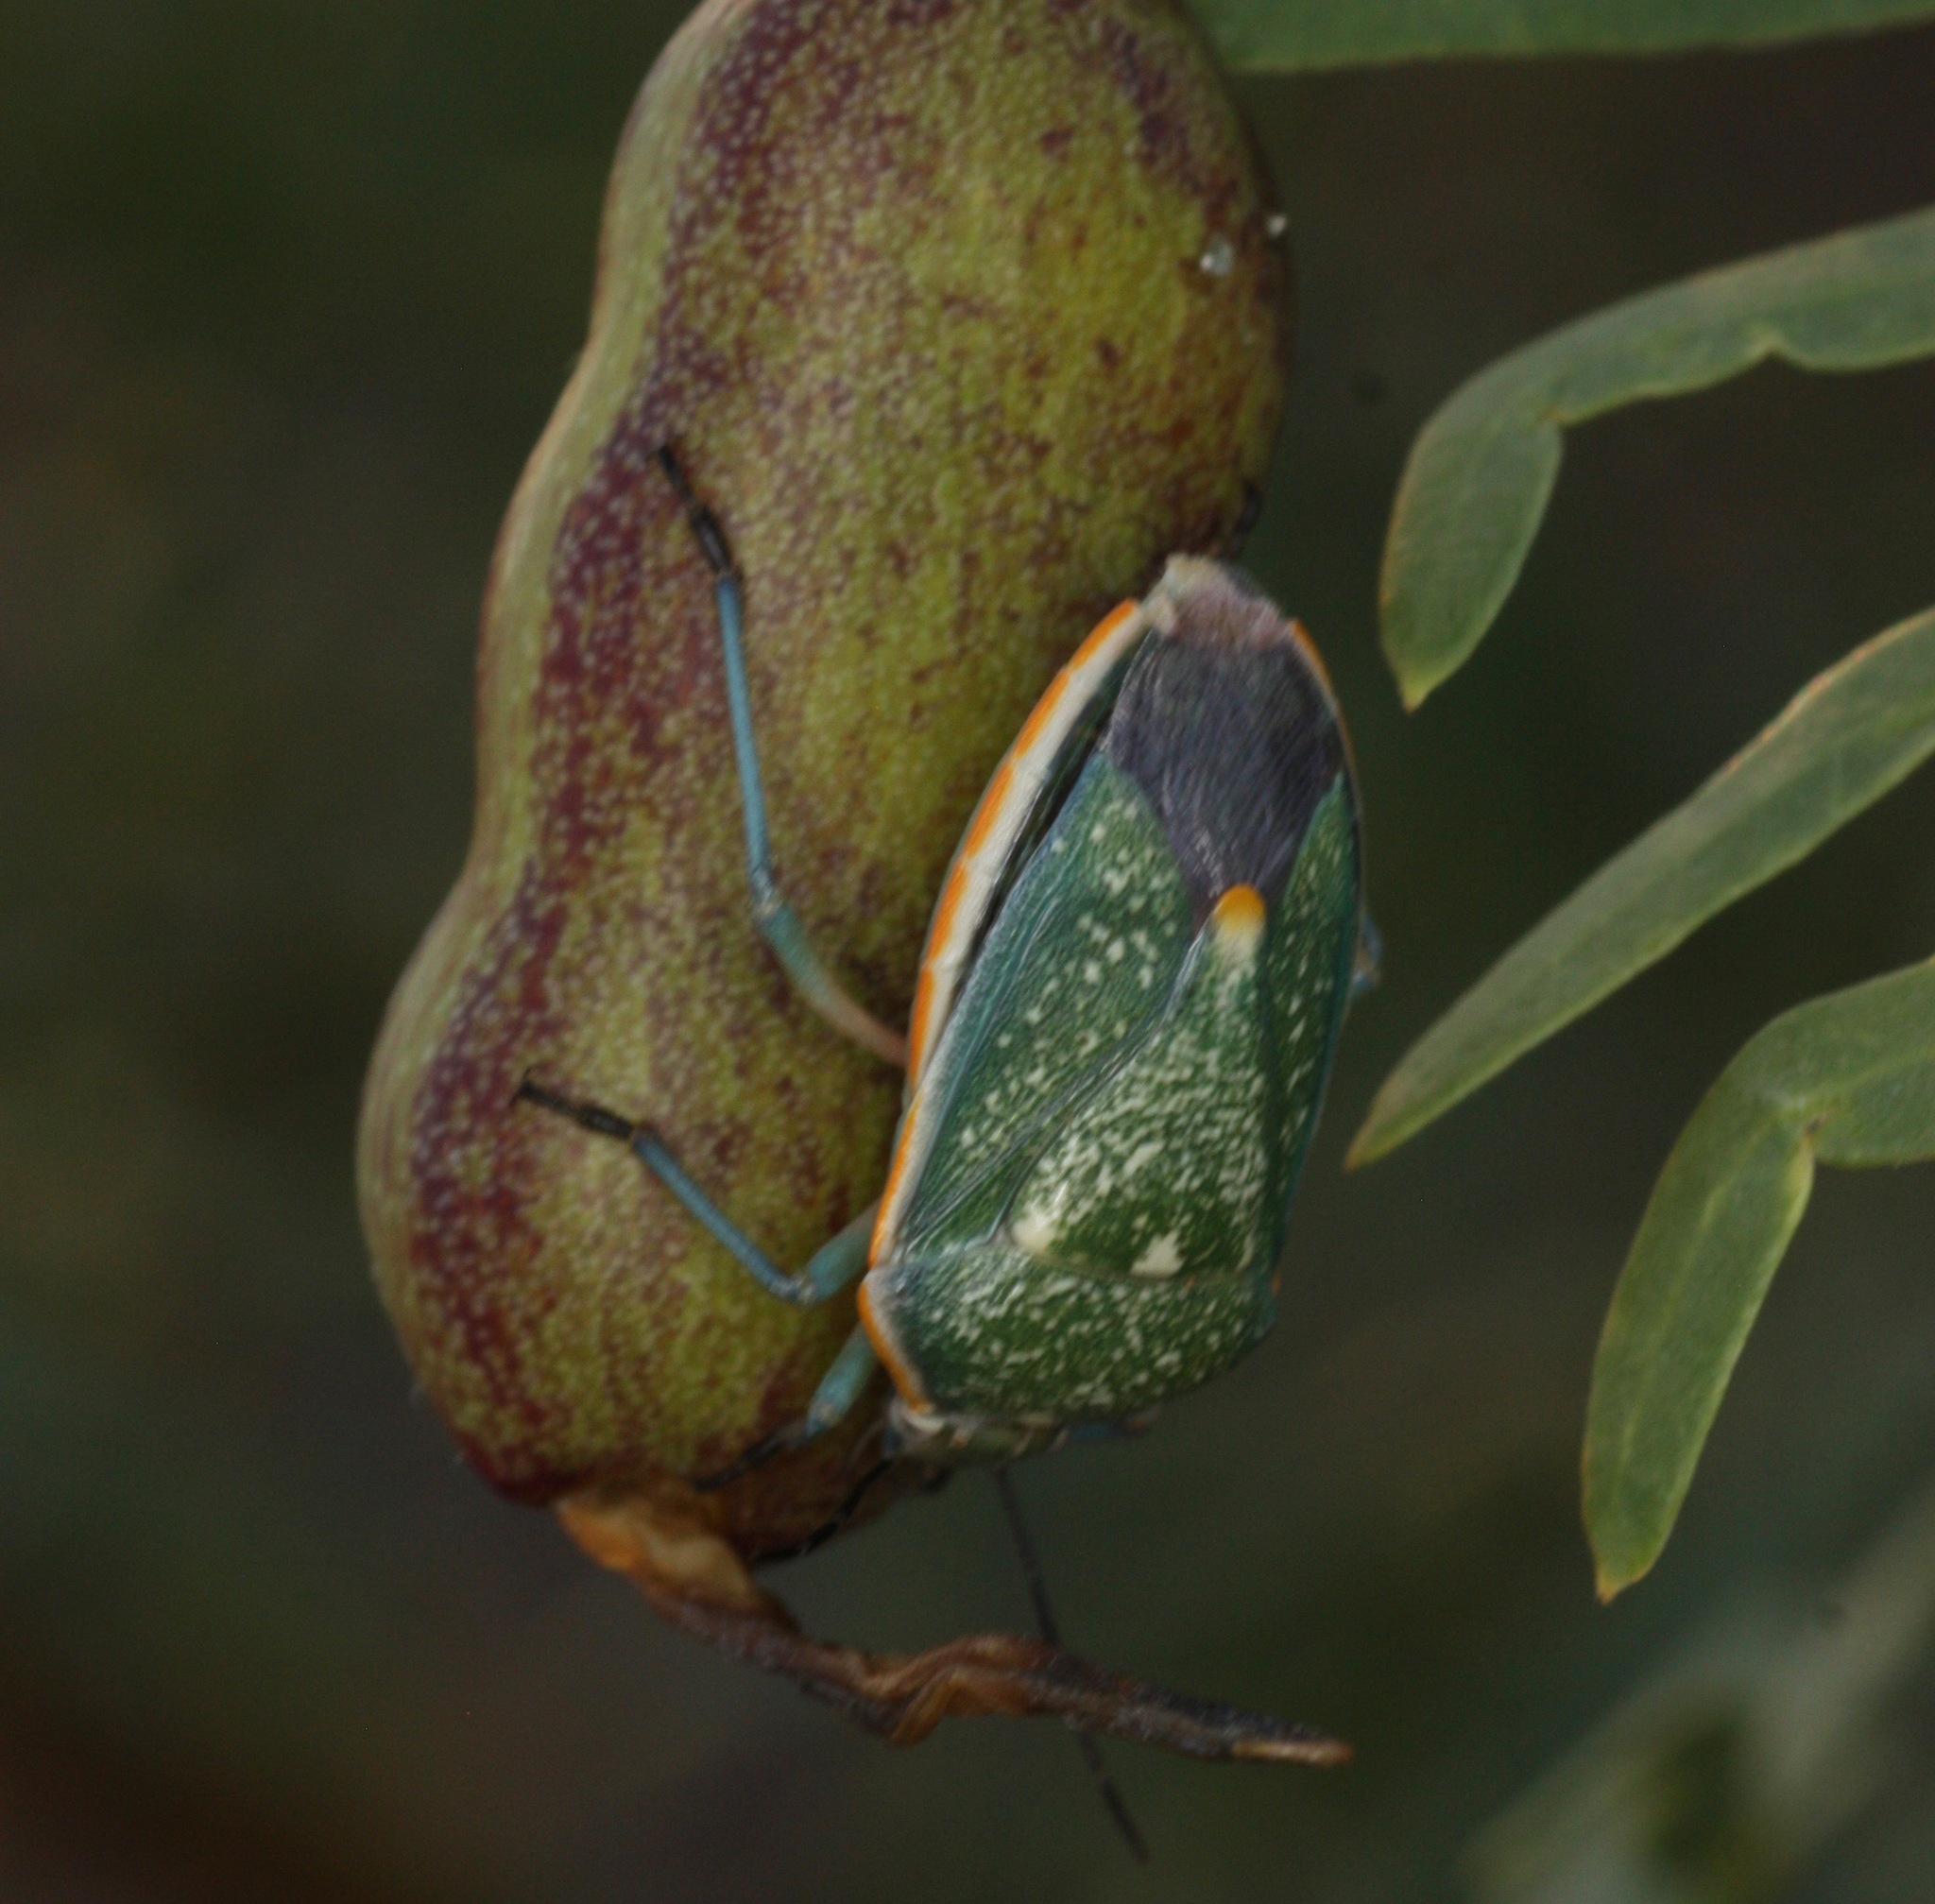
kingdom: Animalia
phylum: Arthropoda
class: Insecta
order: Hemiptera
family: Pentatomidae
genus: Chlorochroa
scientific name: Chlorochroa sayi
